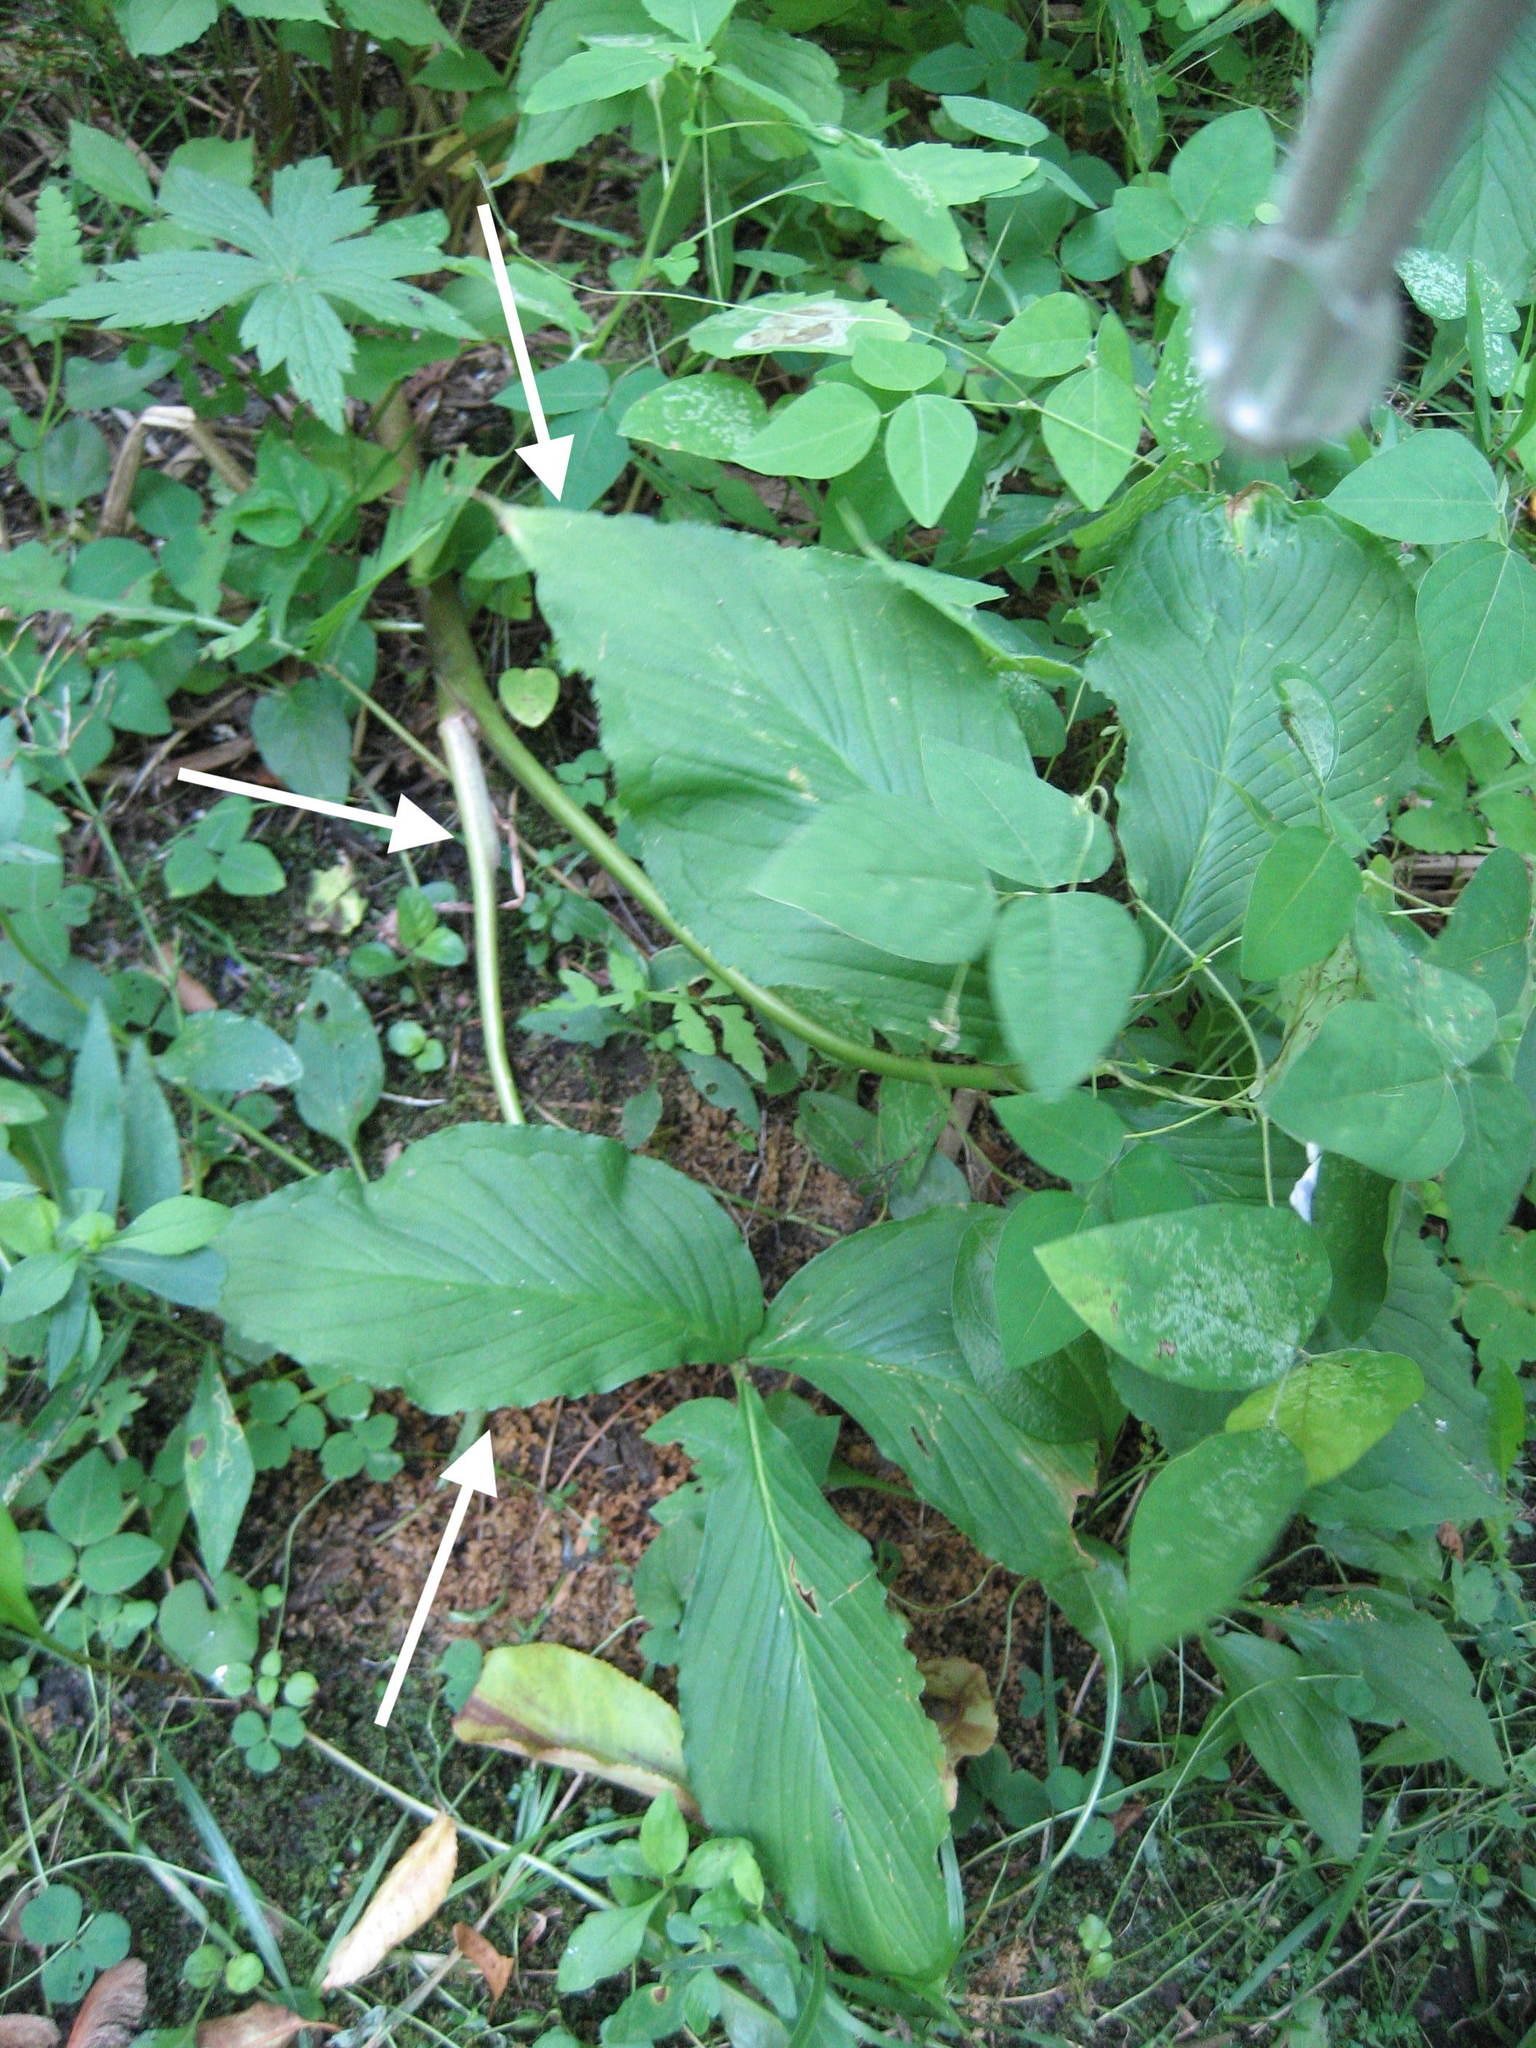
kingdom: Plantae
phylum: Tracheophyta
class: Liliopsida
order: Alismatales
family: Araceae
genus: Arisaema
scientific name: Arisaema triphyllum
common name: Jack-in-the-pulpit
